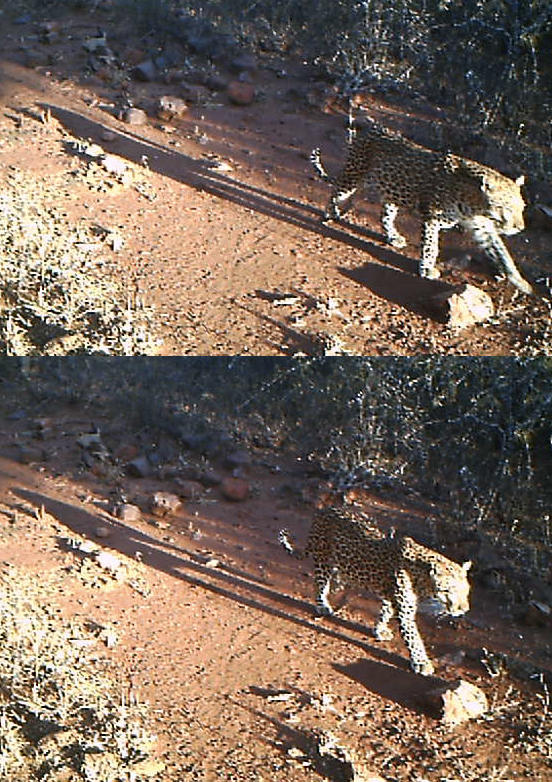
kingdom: Animalia
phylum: Chordata
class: Mammalia
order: Carnivora
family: Felidae
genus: Panthera
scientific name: Panthera pardus
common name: Leopard
